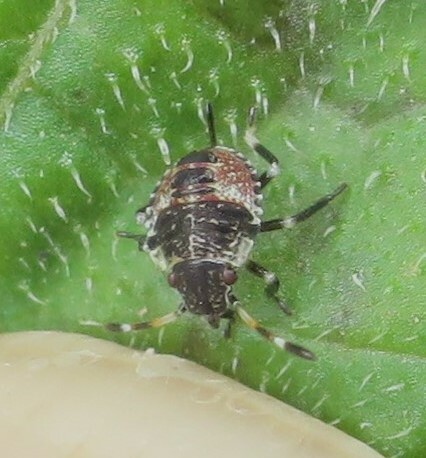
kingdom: Animalia
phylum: Arthropoda
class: Insecta
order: Hemiptera
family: Pentatomidae
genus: Cuspicona
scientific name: Cuspicona simplex
